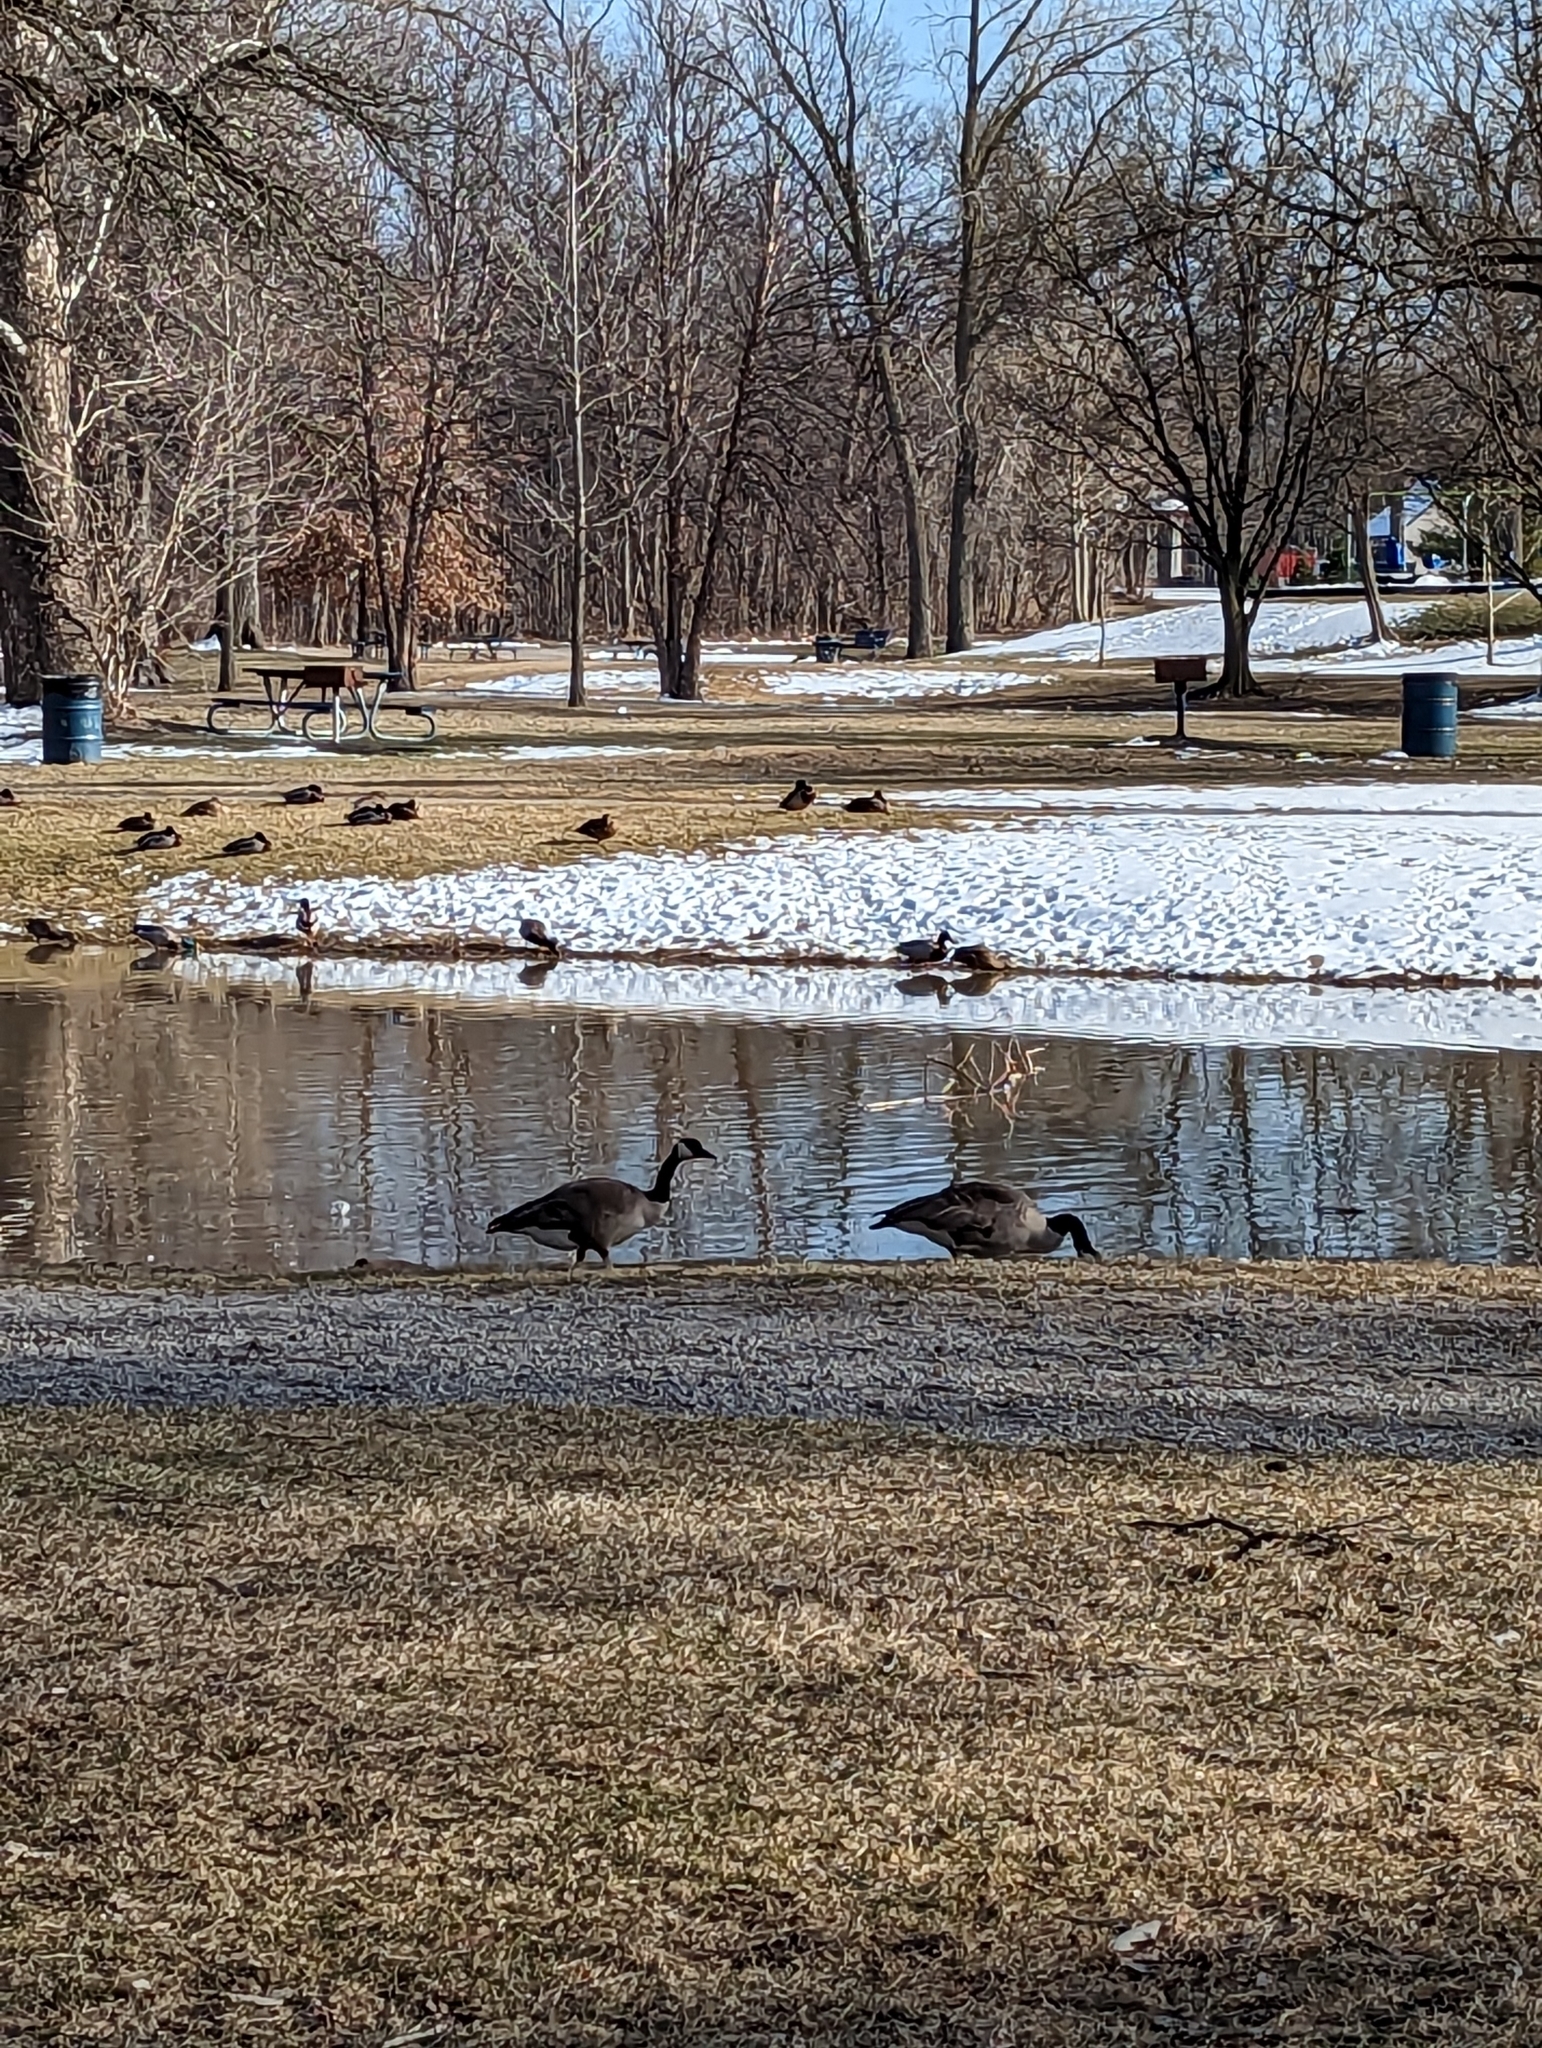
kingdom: Animalia
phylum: Chordata
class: Aves
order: Anseriformes
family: Anatidae
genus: Branta
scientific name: Branta canadensis
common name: Canada goose
